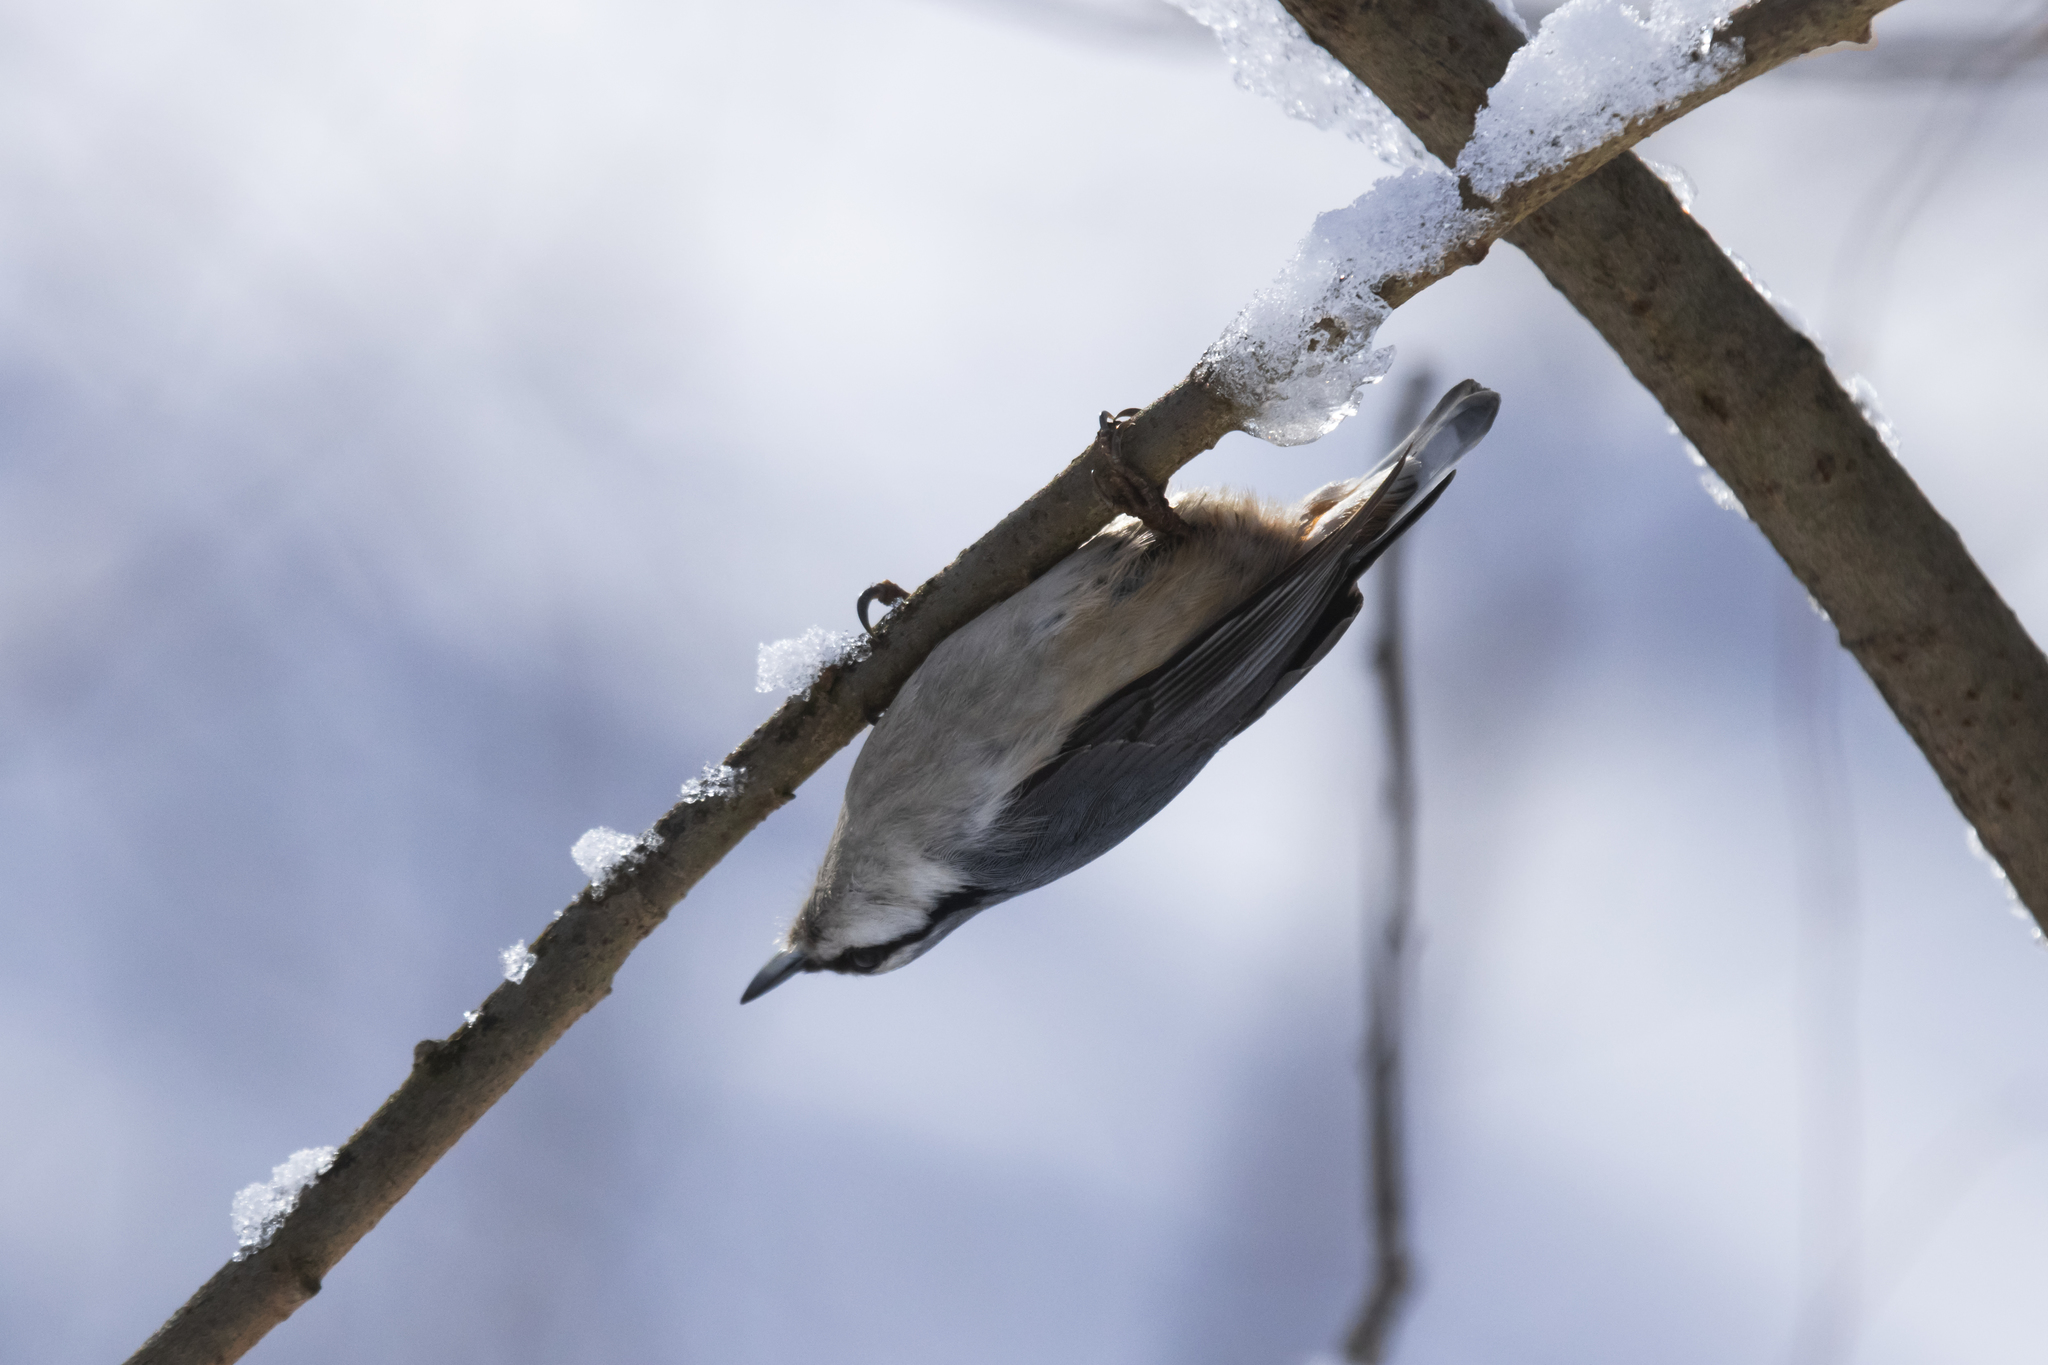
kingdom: Animalia
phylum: Chordata
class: Aves
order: Passeriformes
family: Sittidae
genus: Sitta
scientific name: Sitta europaea
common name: Eurasian nuthatch
